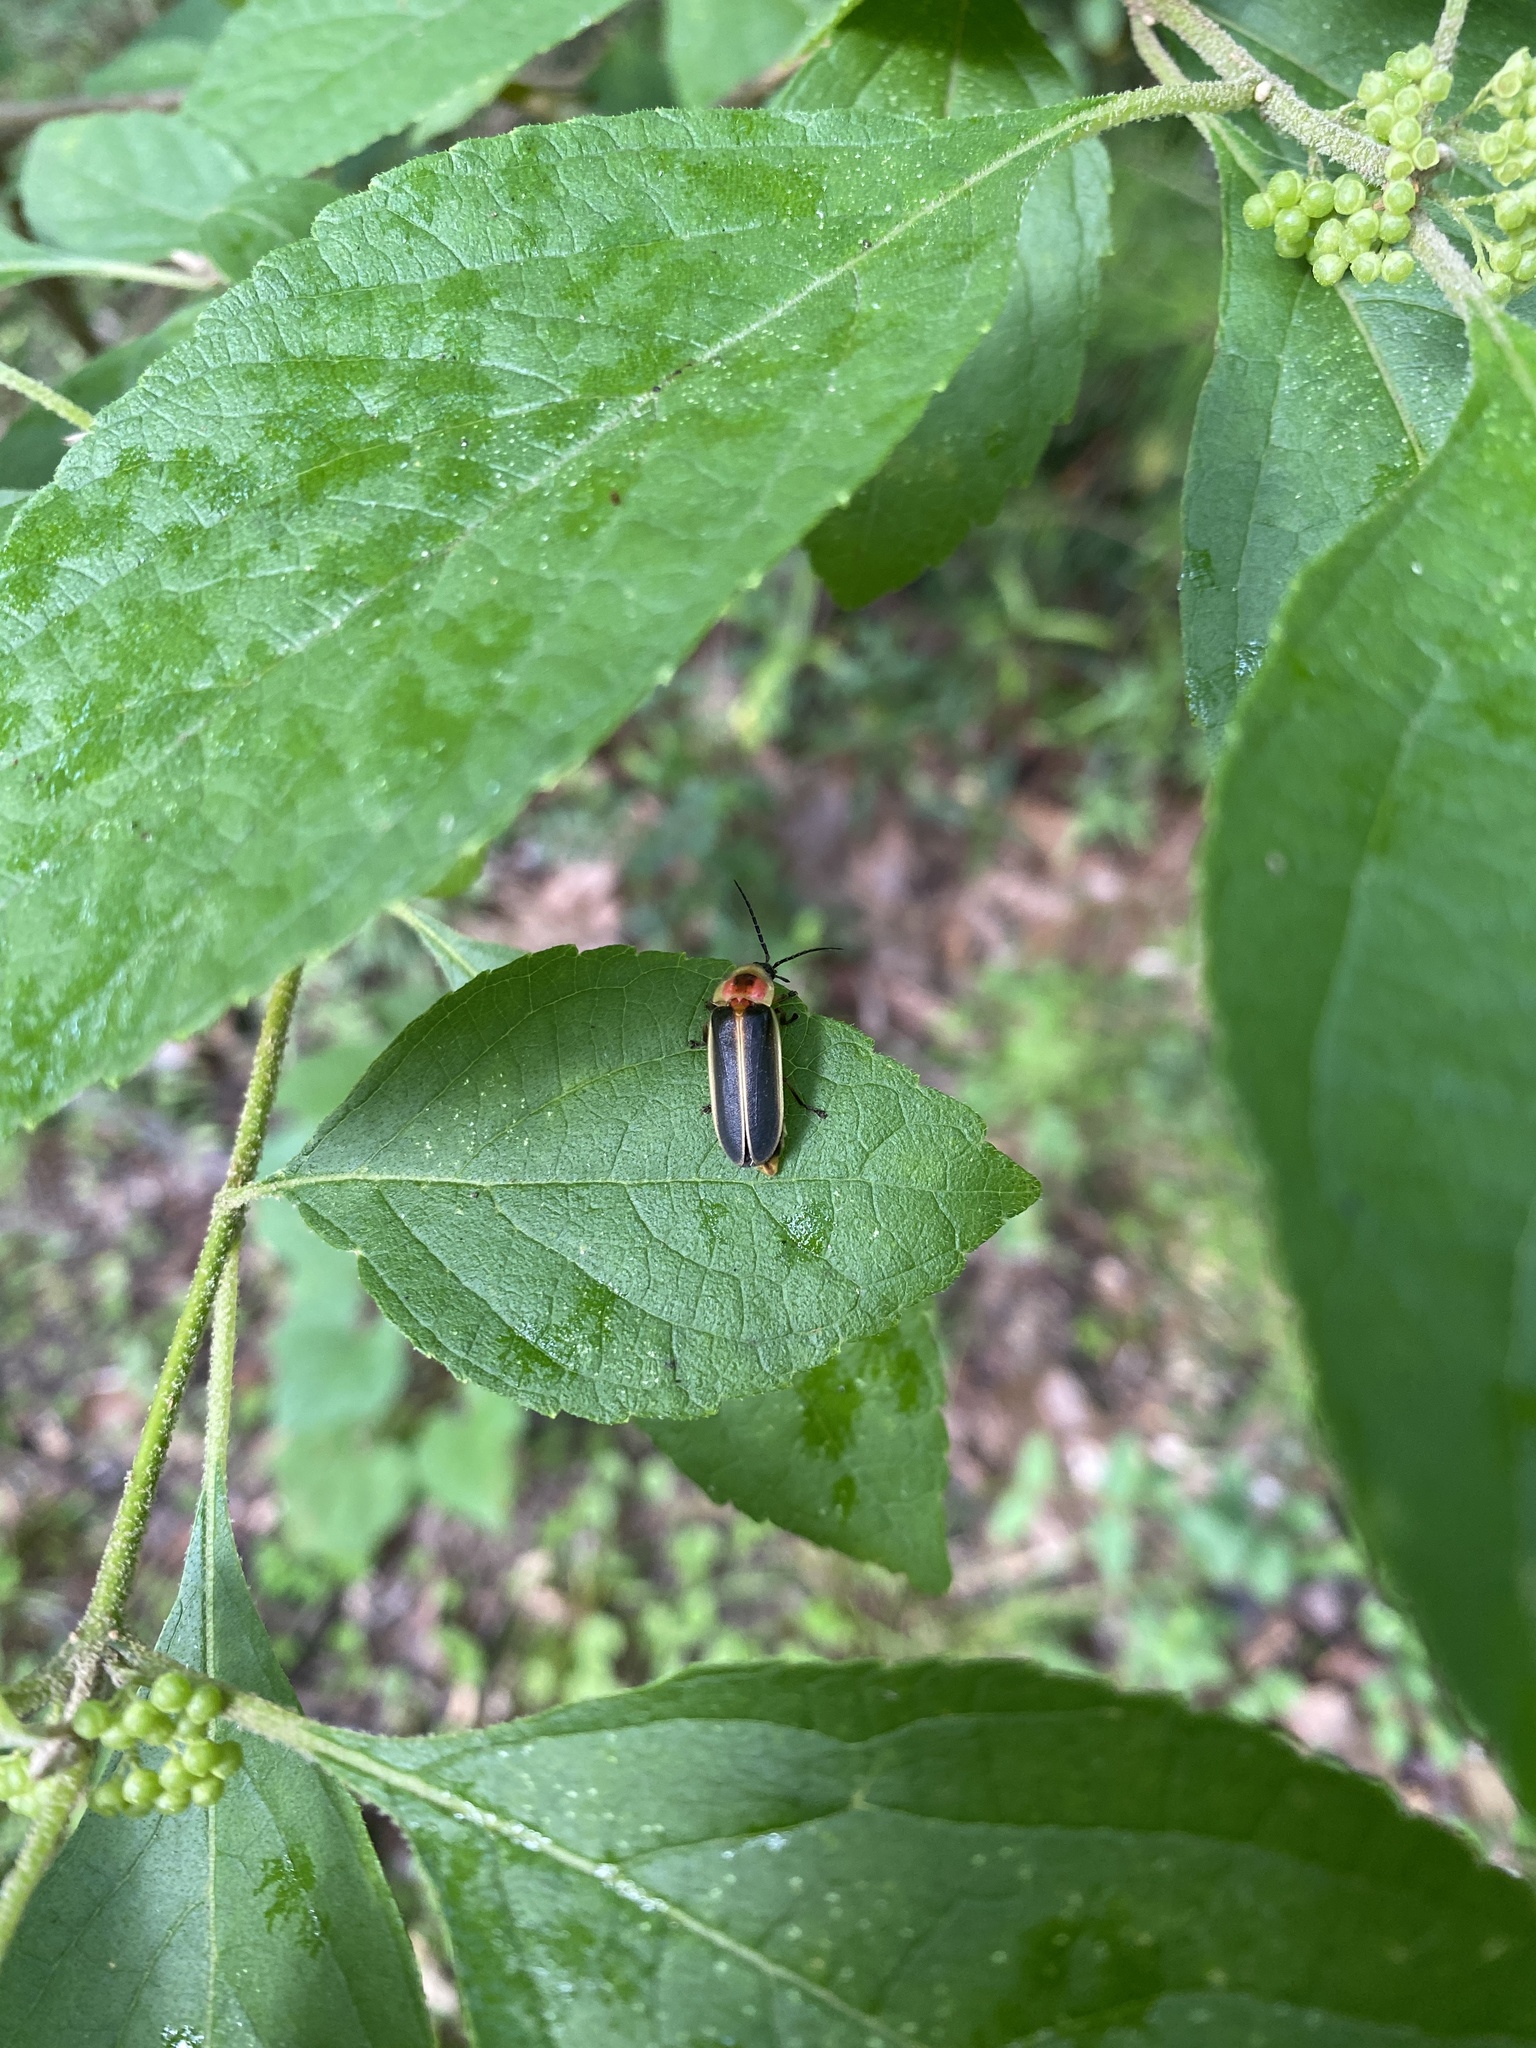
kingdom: Animalia
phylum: Arthropoda
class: Insecta
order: Coleoptera
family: Lampyridae
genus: Photinus
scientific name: Photinus pyralis
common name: Big dipper firefly
